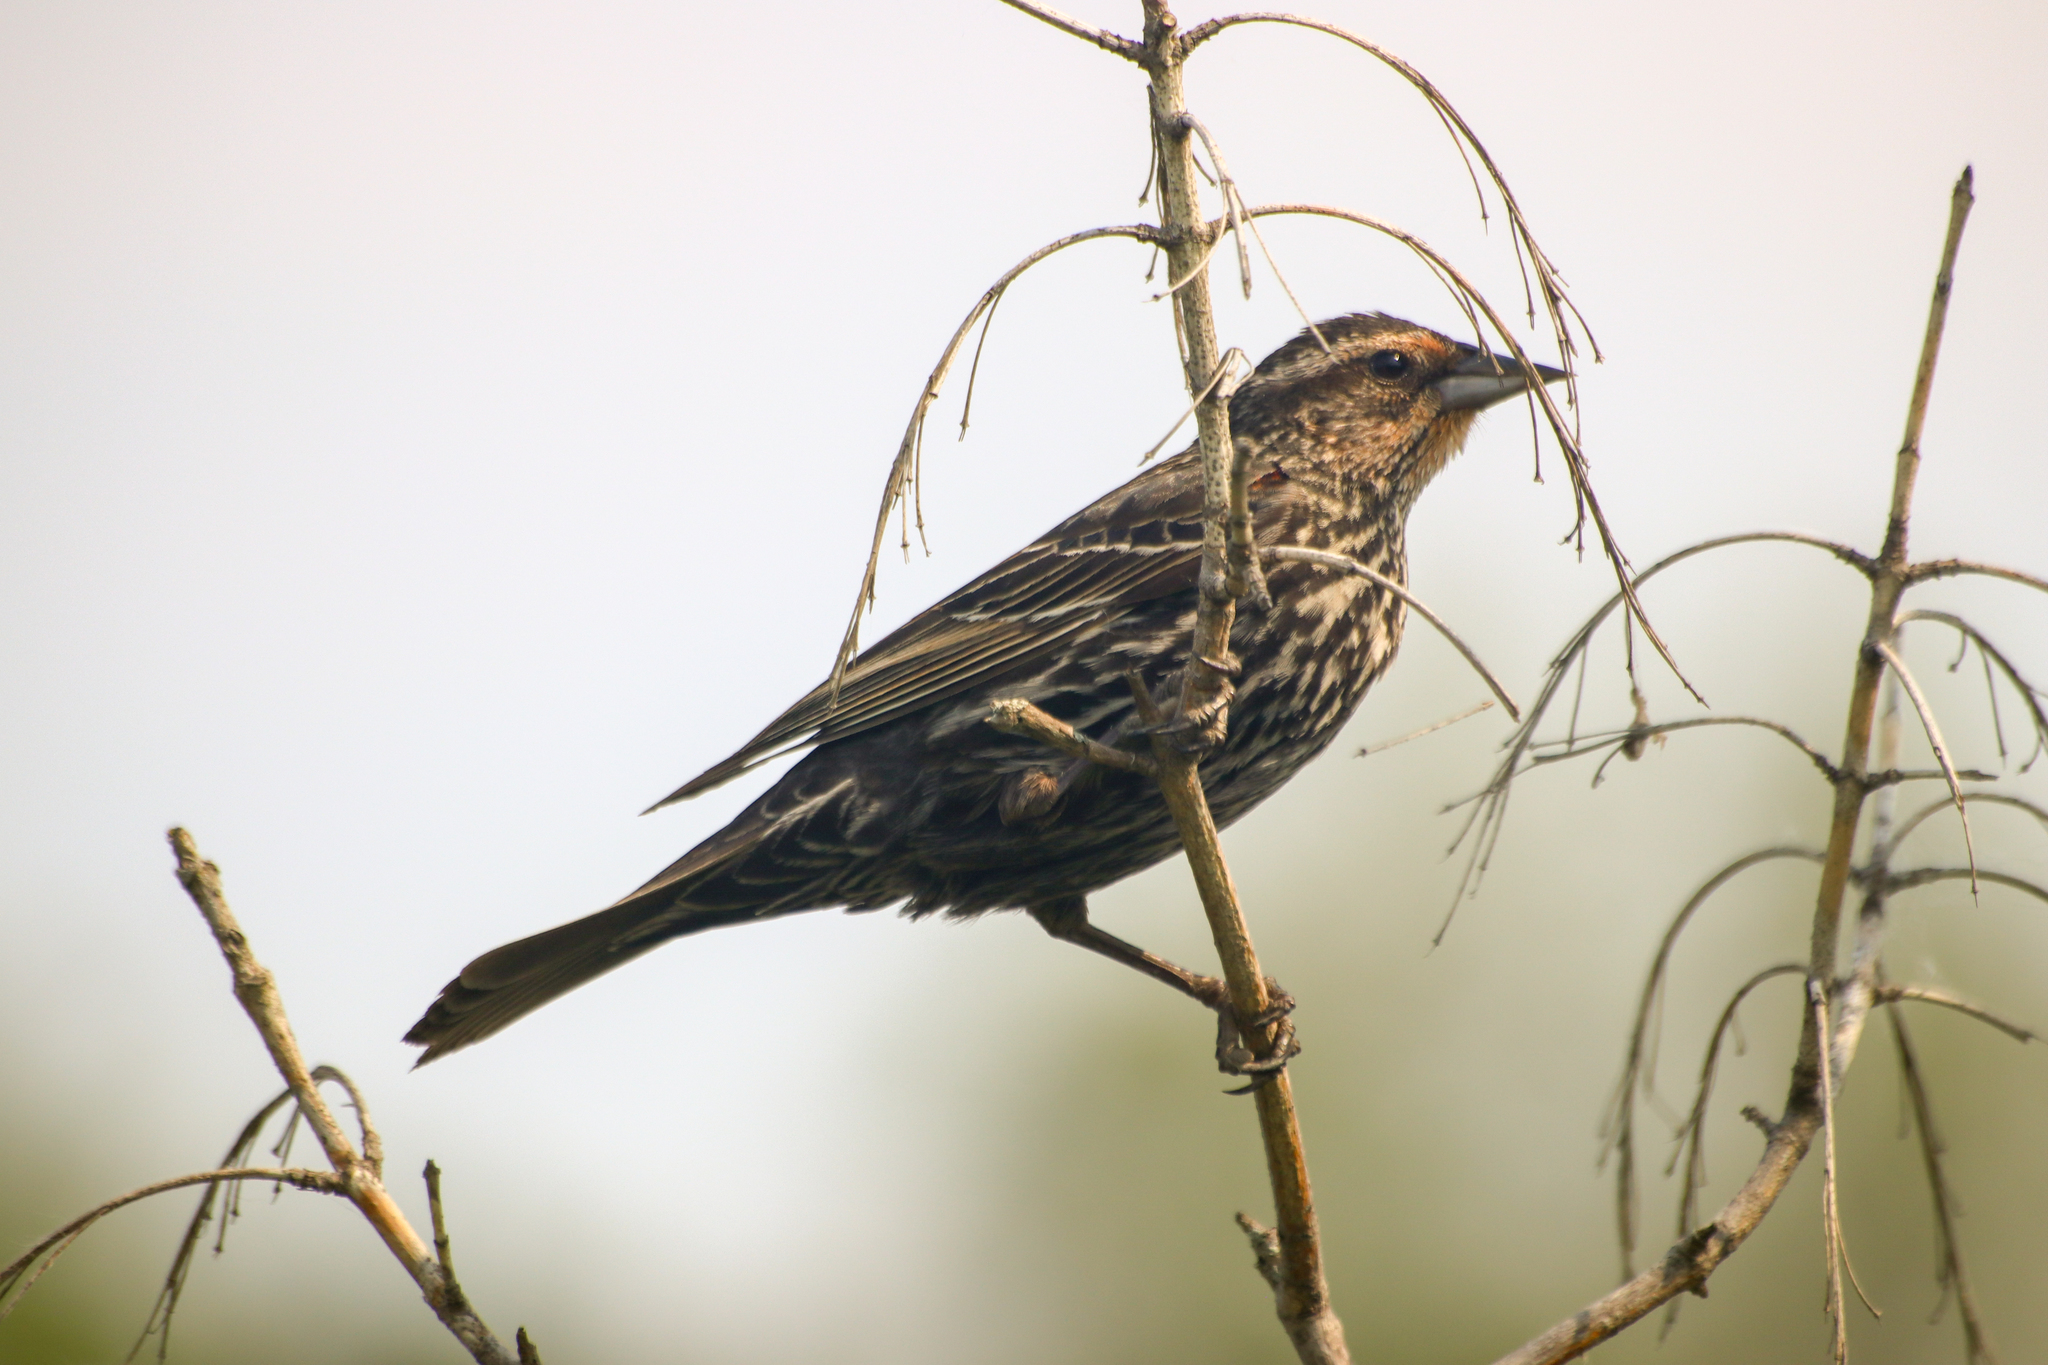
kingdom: Animalia
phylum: Chordata
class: Aves
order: Passeriformes
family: Icteridae
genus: Agelaius
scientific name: Agelaius phoeniceus
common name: Red-winged blackbird
